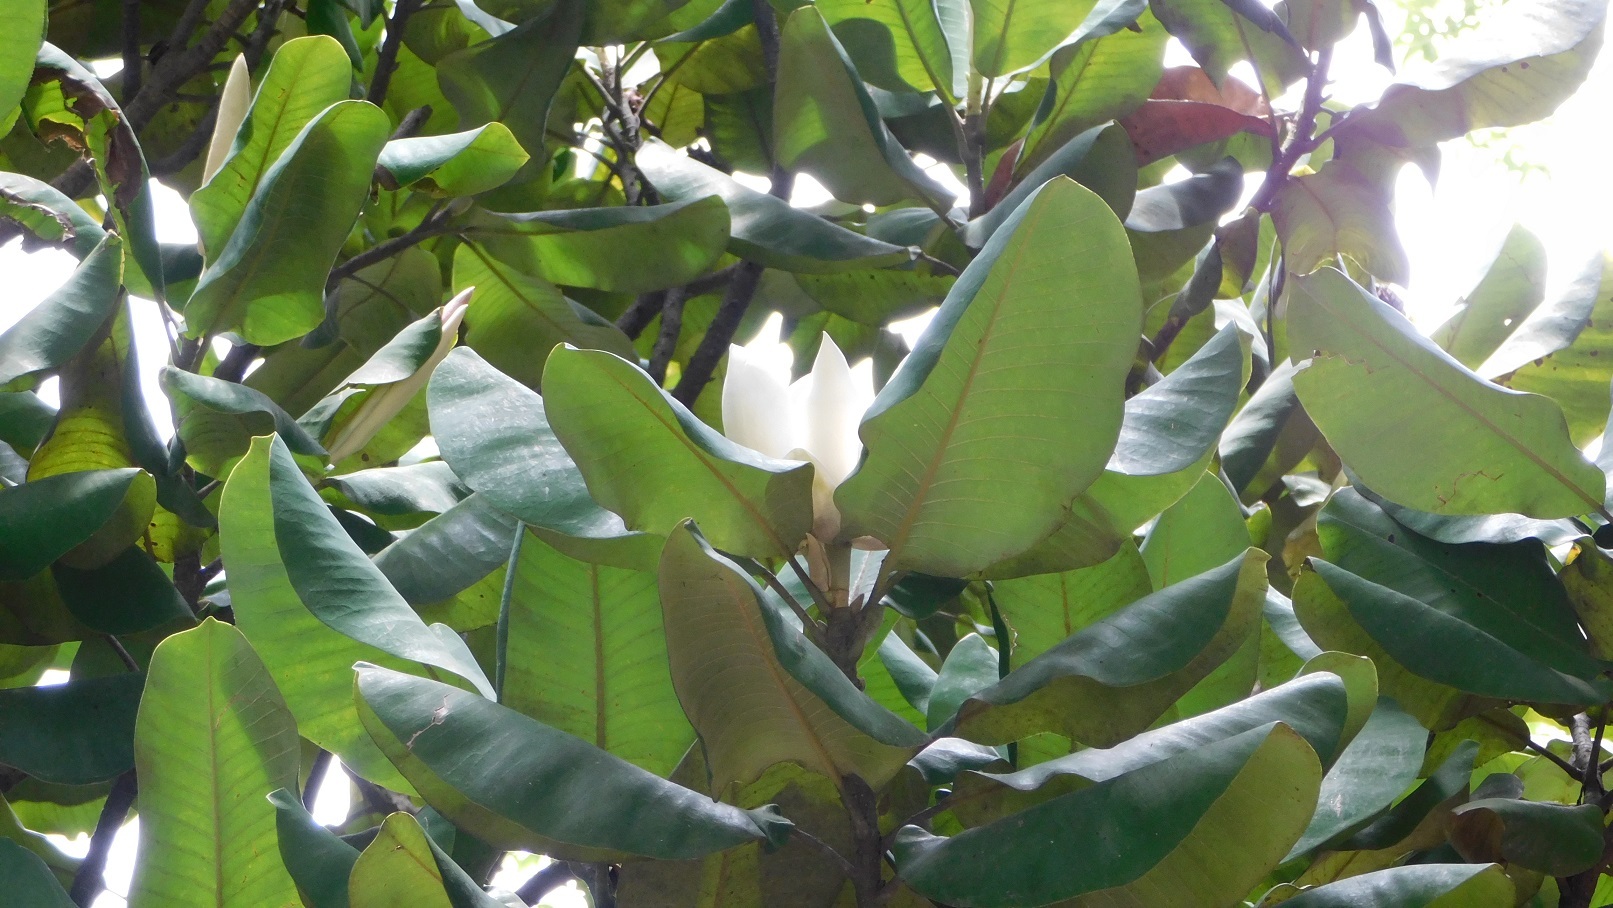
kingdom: Plantae
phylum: Tracheophyta
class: Magnoliopsida
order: Magnoliales
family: Magnoliaceae
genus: Magnolia
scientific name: Magnolia sharpii
